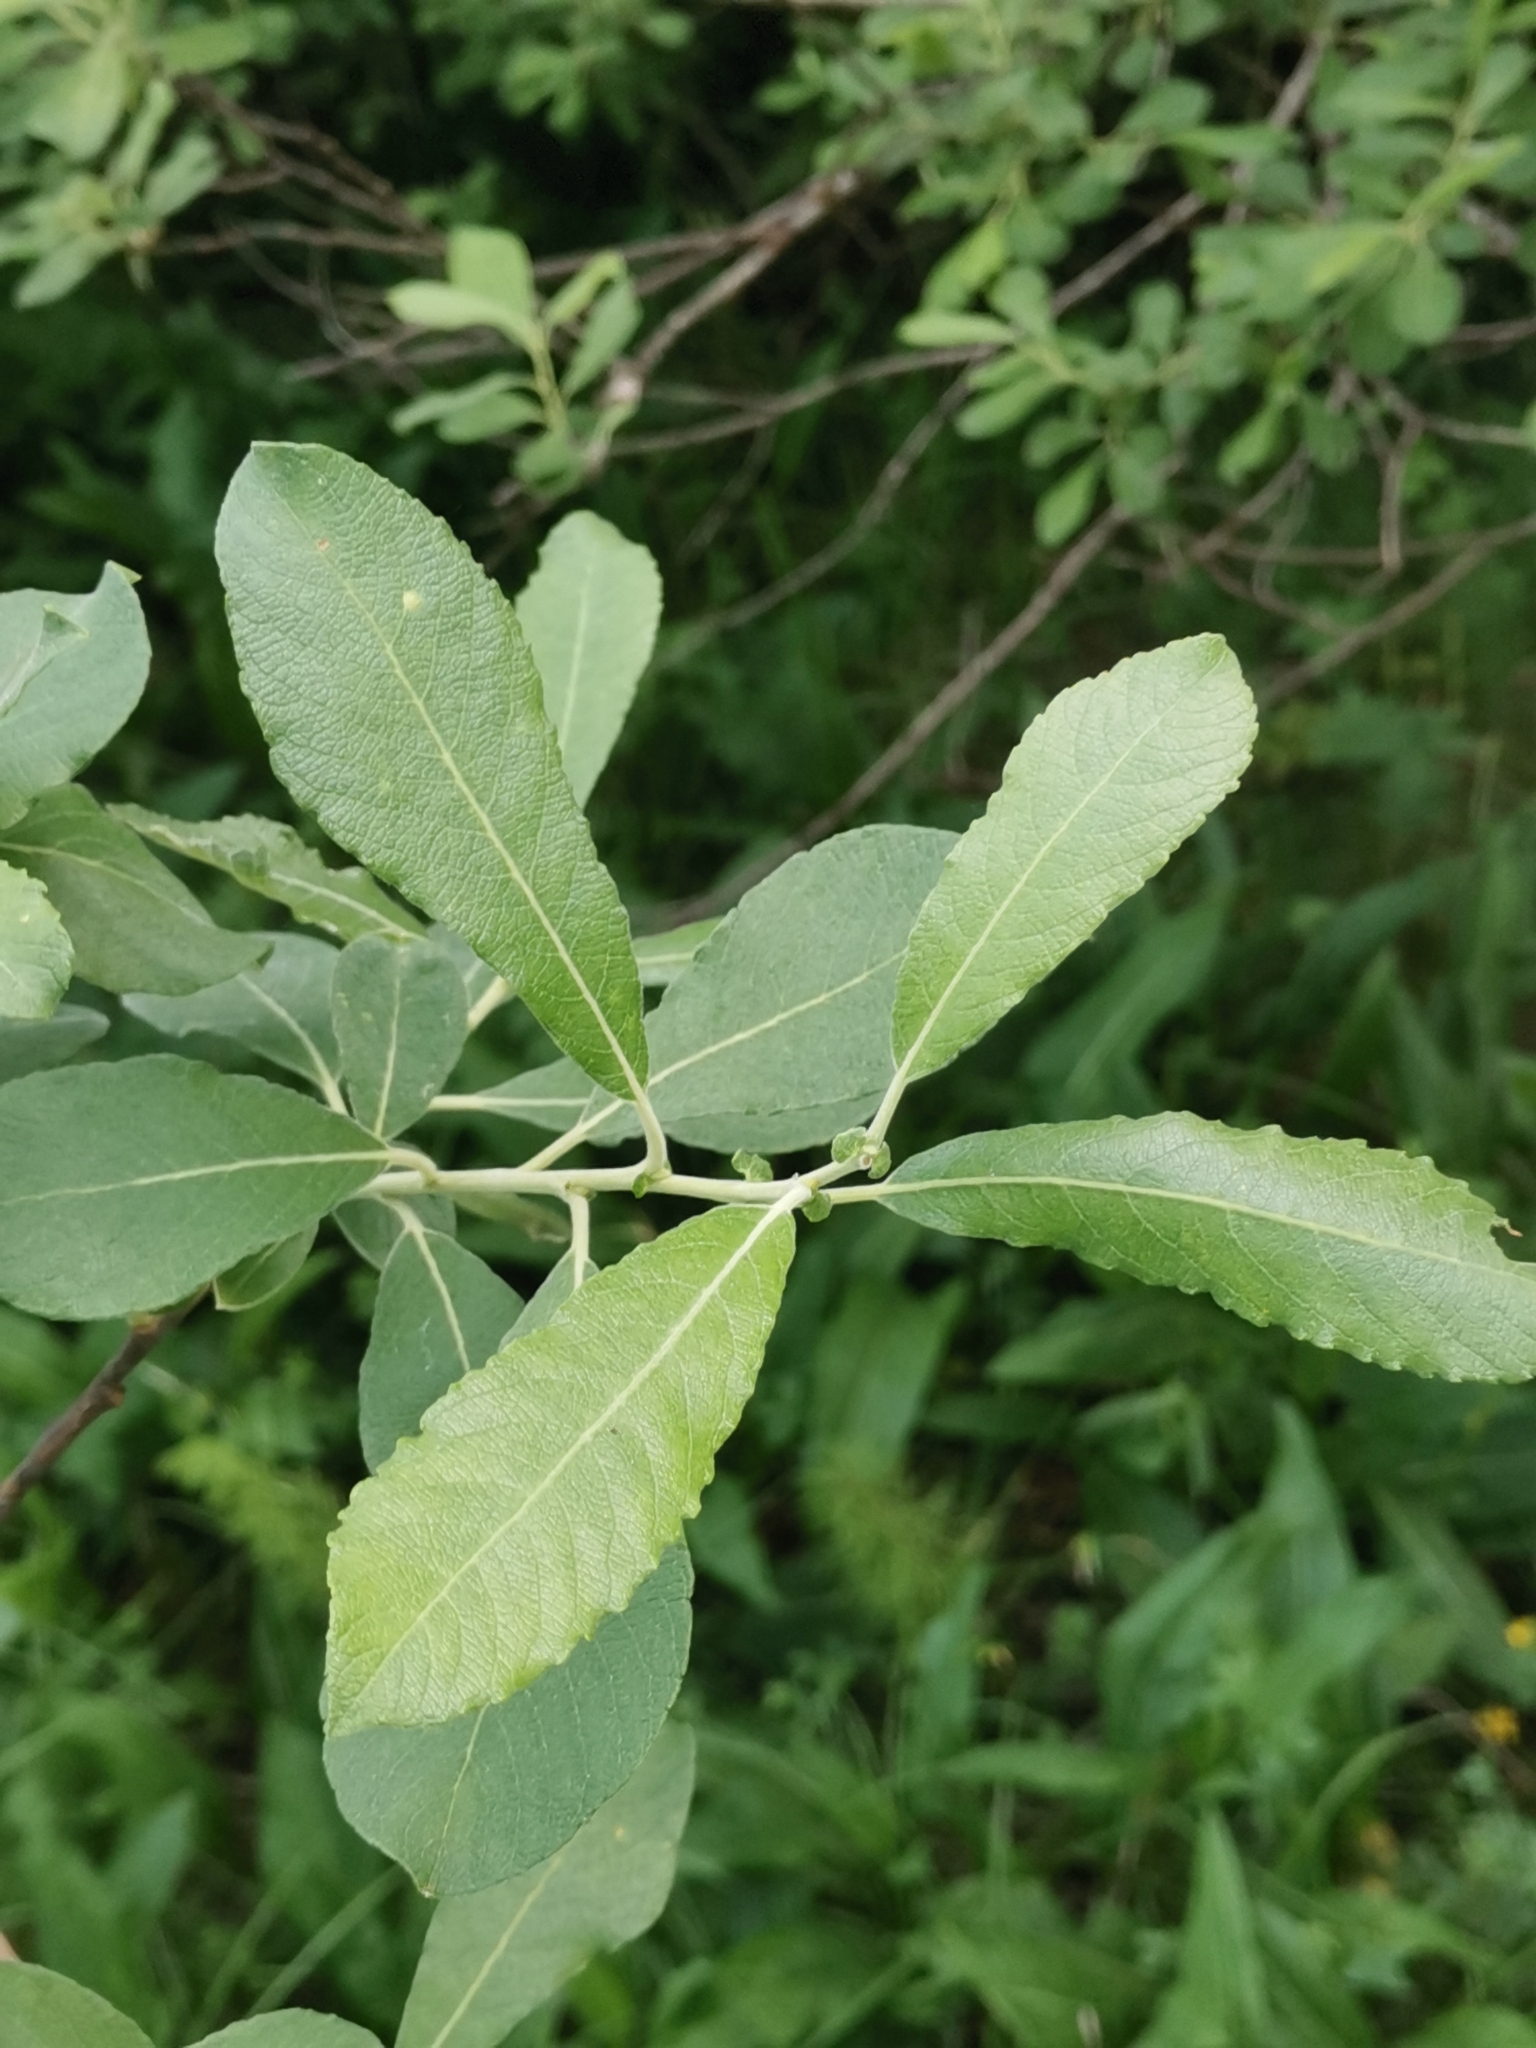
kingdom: Plantae
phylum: Tracheophyta
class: Magnoliopsida
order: Malpighiales
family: Salicaceae
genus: Salix
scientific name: Salix cinerea
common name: Common sallow
